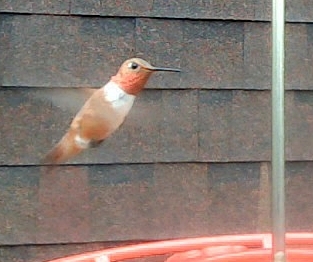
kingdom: Animalia
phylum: Chordata
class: Aves
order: Apodiformes
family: Trochilidae
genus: Selasphorus
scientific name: Selasphorus rufus
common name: Rufous hummingbird
